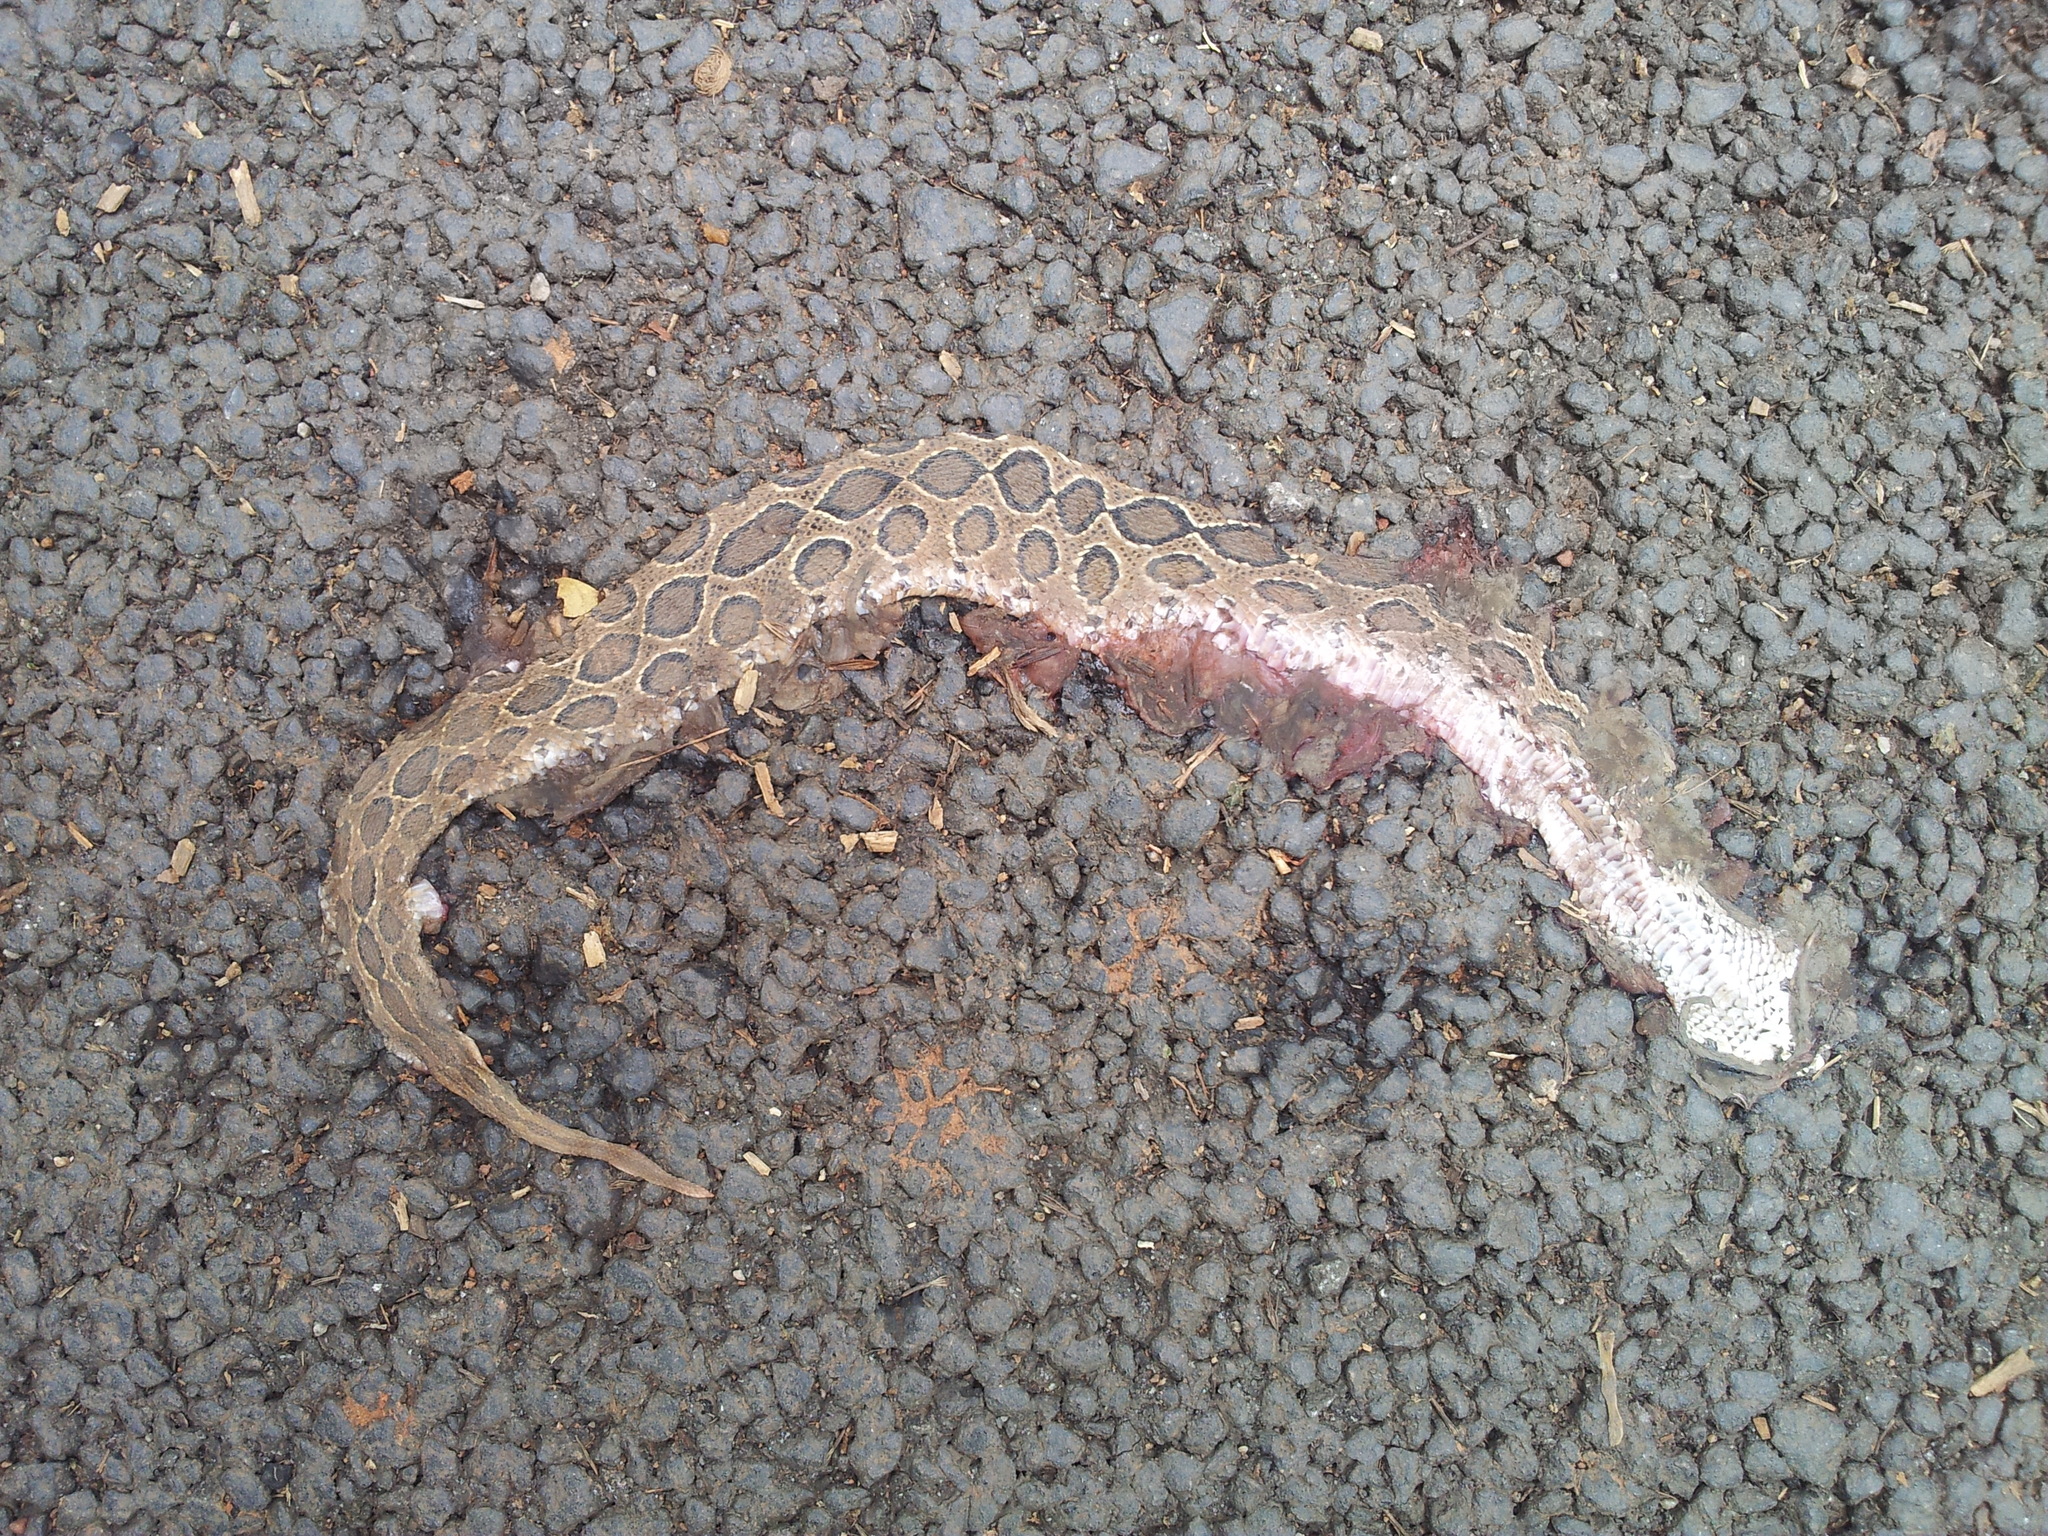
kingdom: Animalia
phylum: Chordata
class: Squamata
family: Viperidae
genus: Daboia
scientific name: Daboia russelii
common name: Western russel’s viper
